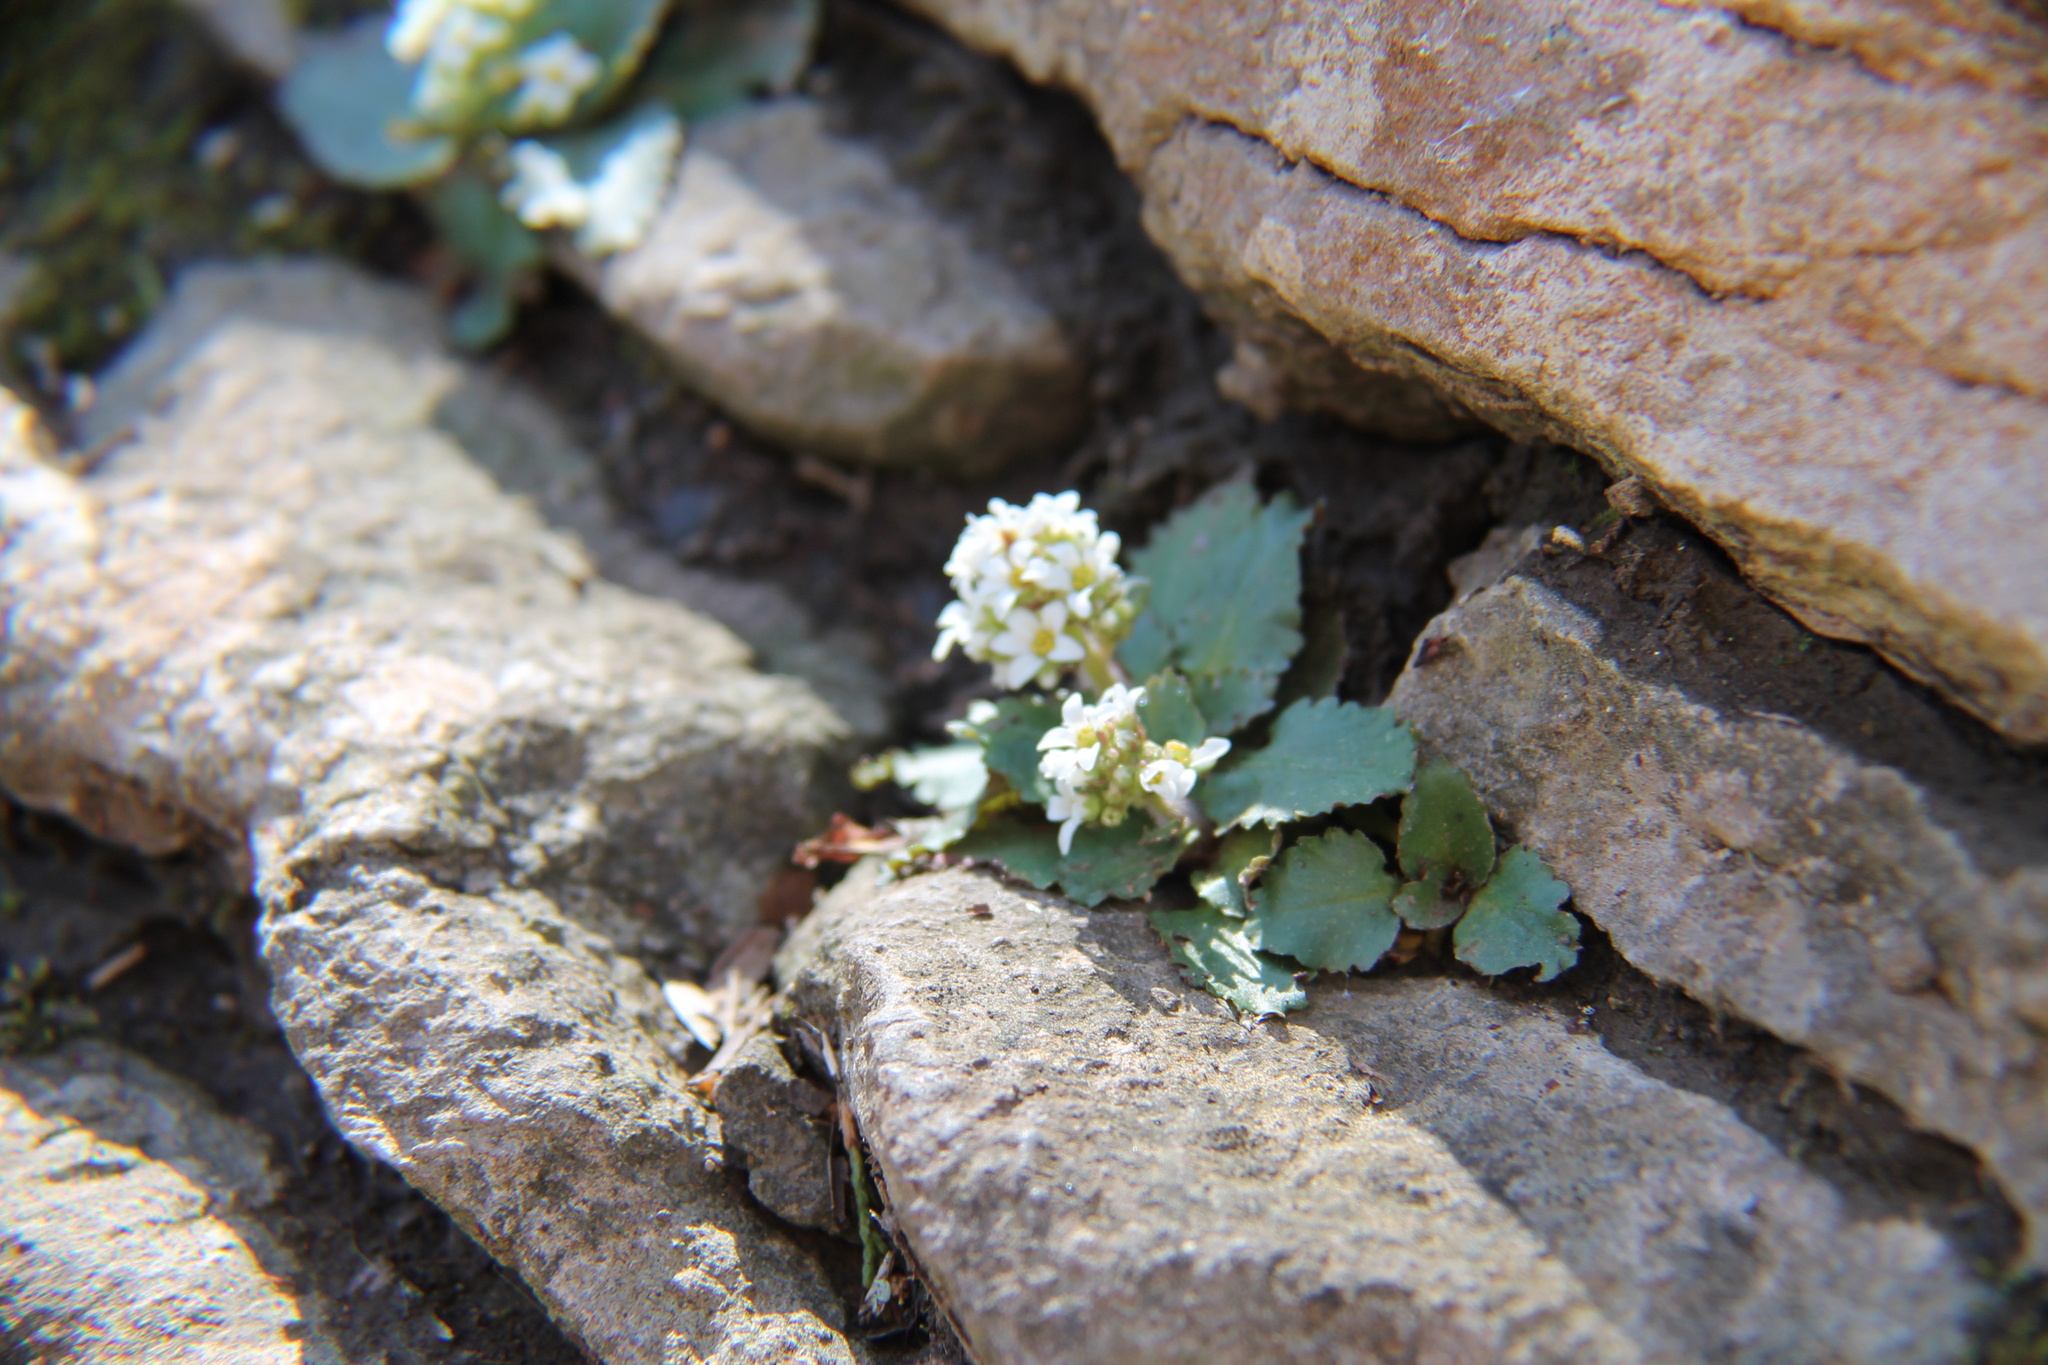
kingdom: Plantae
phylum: Tracheophyta
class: Magnoliopsida
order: Saxifragales
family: Saxifragaceae
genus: Micranthes
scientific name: Micranthes virginiensis
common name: Early saxifrage
